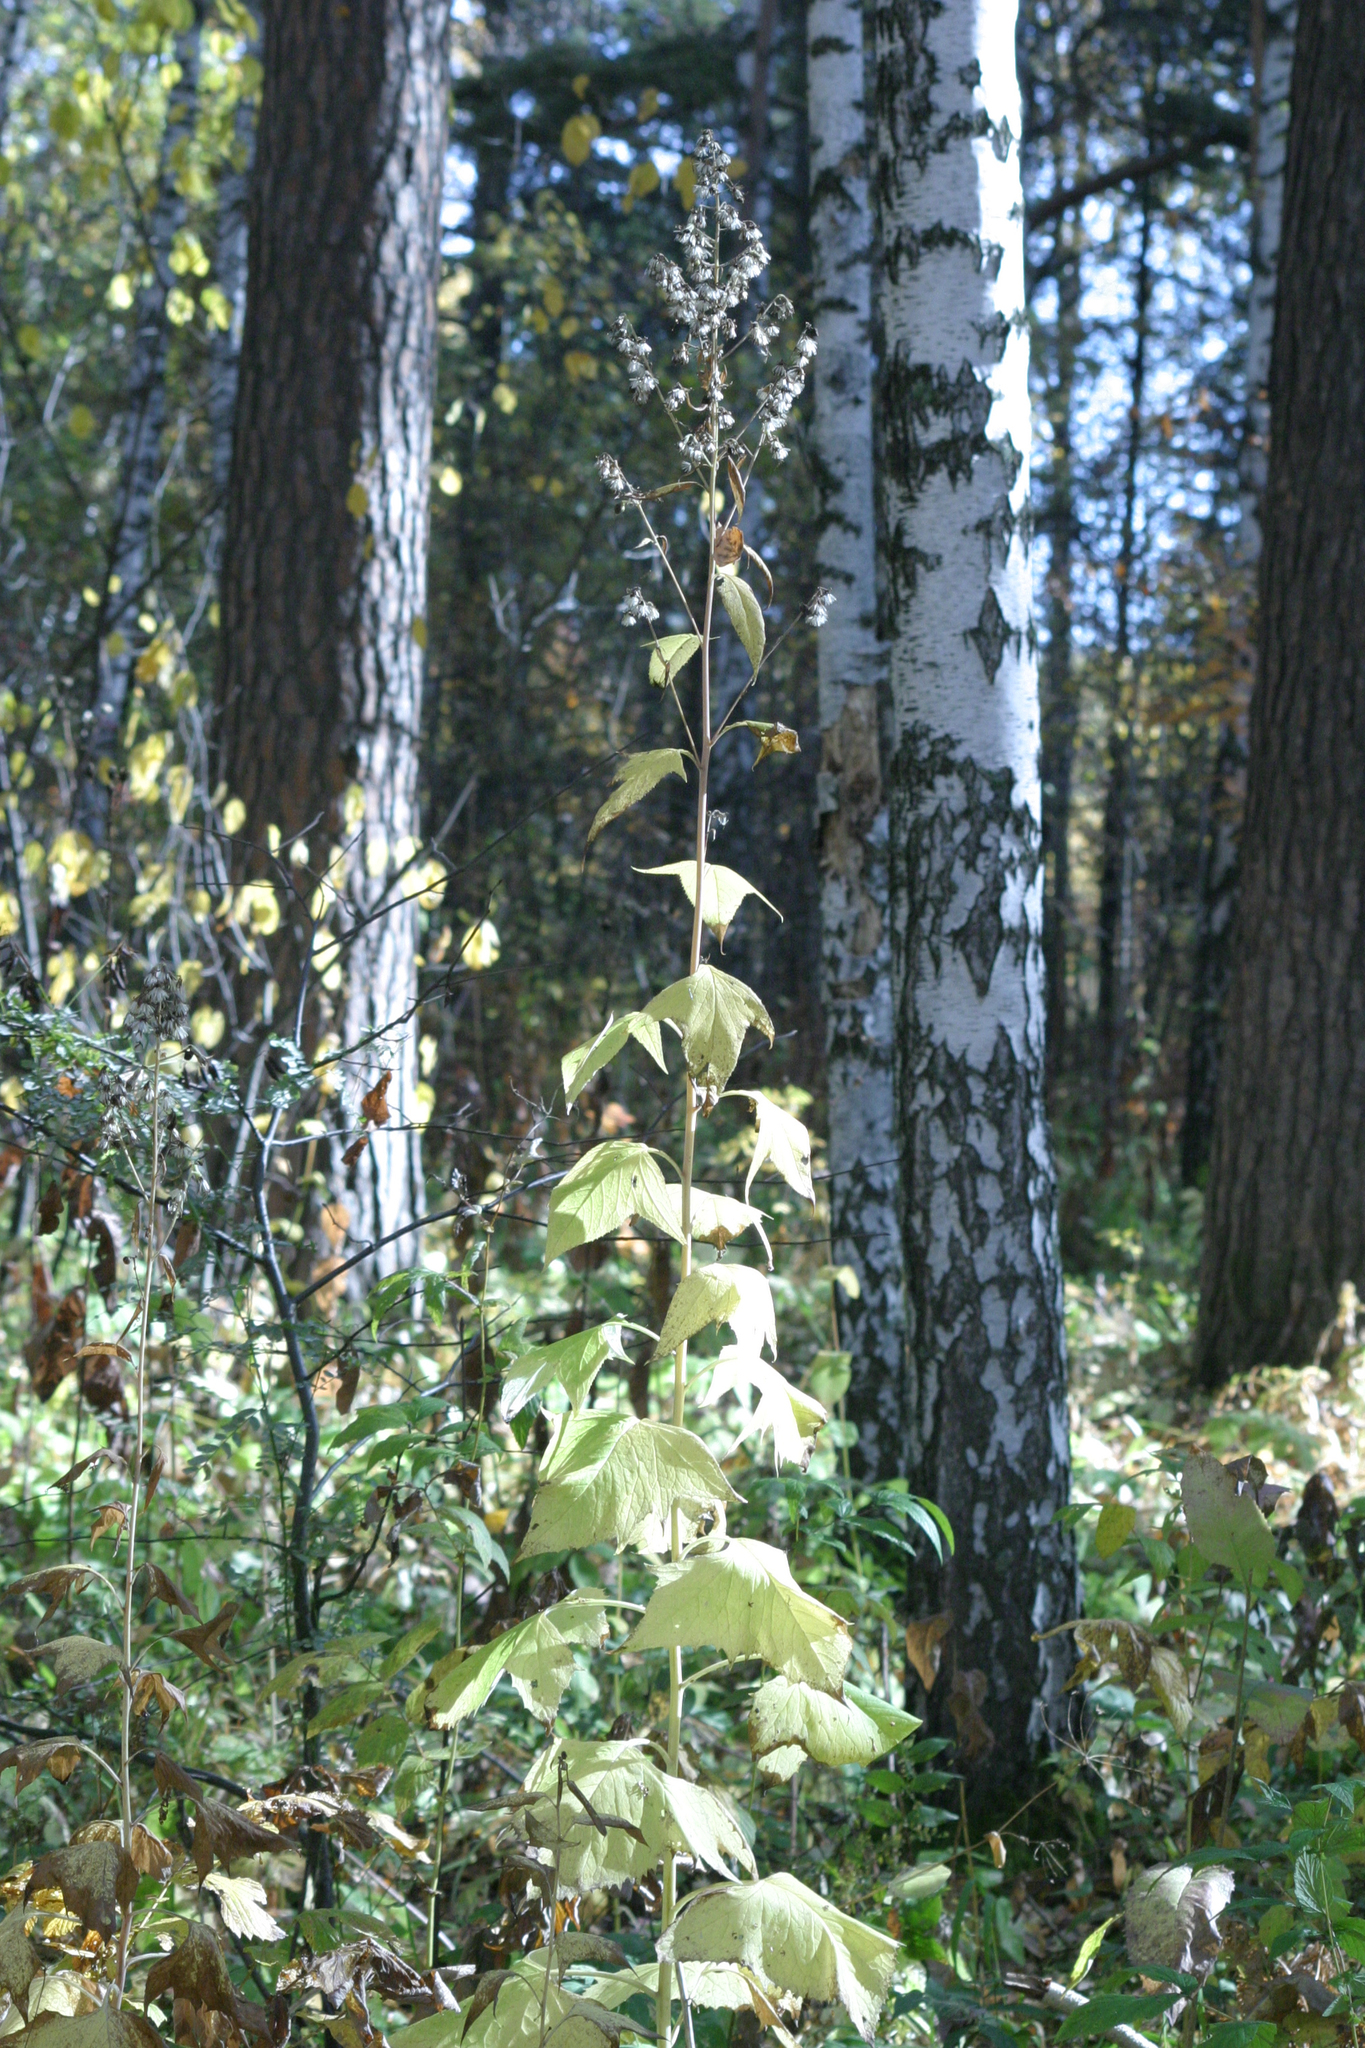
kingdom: Plantae
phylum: Tracheophyta
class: Magnoliopsida
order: Asterales
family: Asteraceae
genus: Parasenecio
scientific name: Parasenecio hastatus
